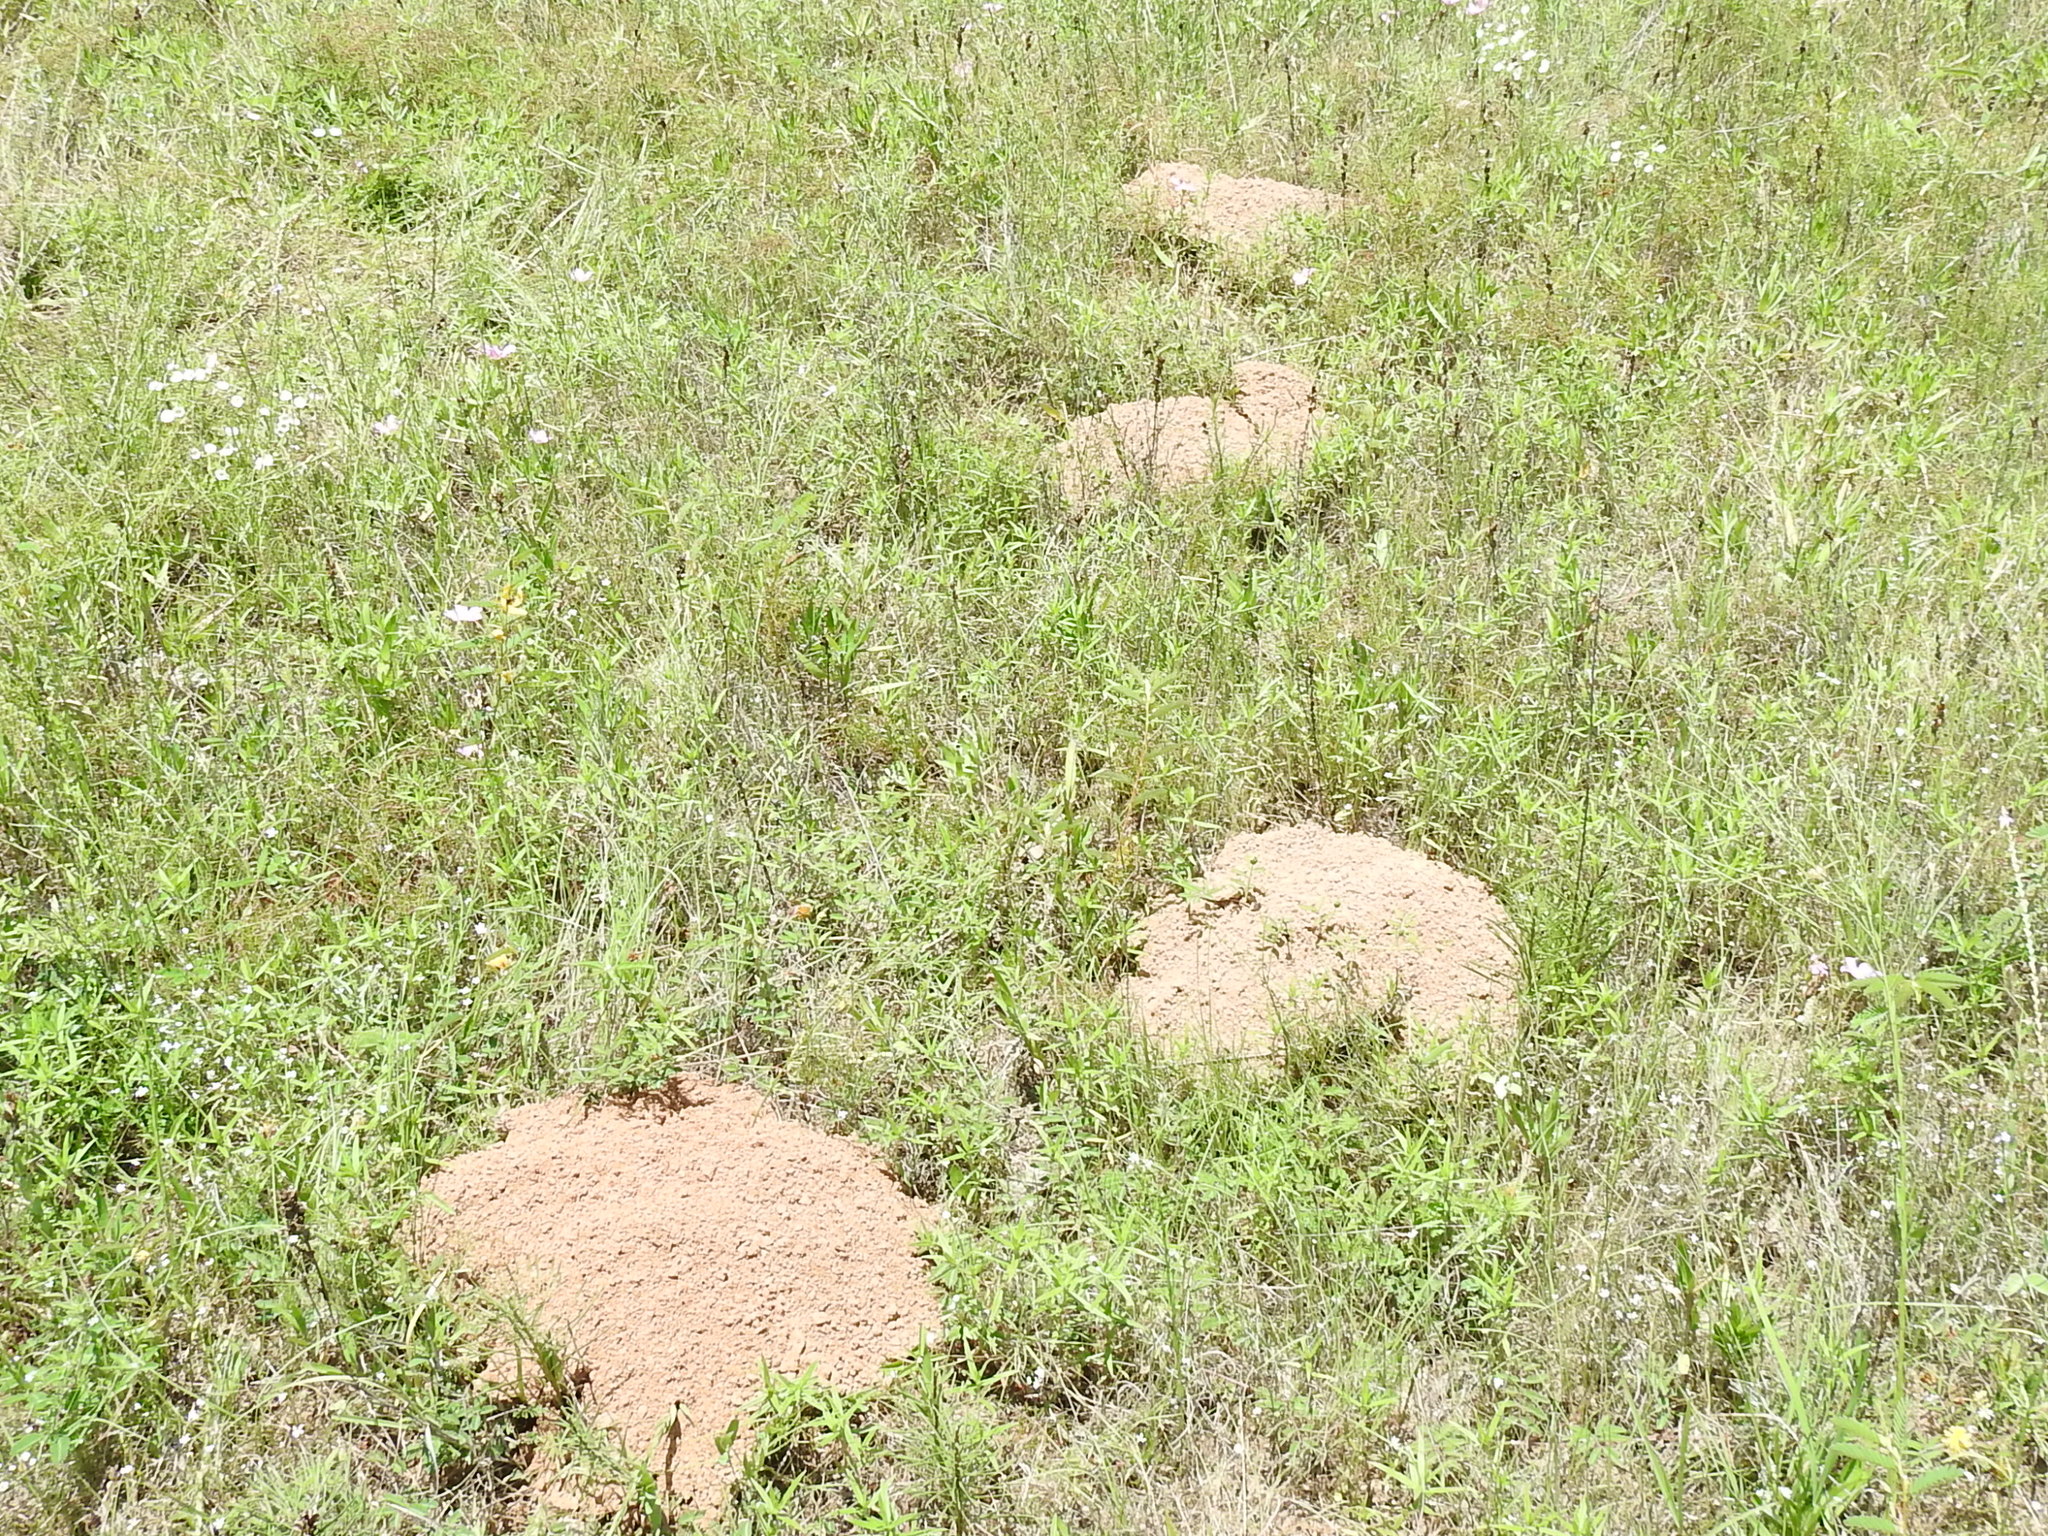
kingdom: Animalia
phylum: Chordata
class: Mammalia
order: Rodentia
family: Geomyidae
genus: Geomys
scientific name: Geomys bursarius
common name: Plains pocket gopher
